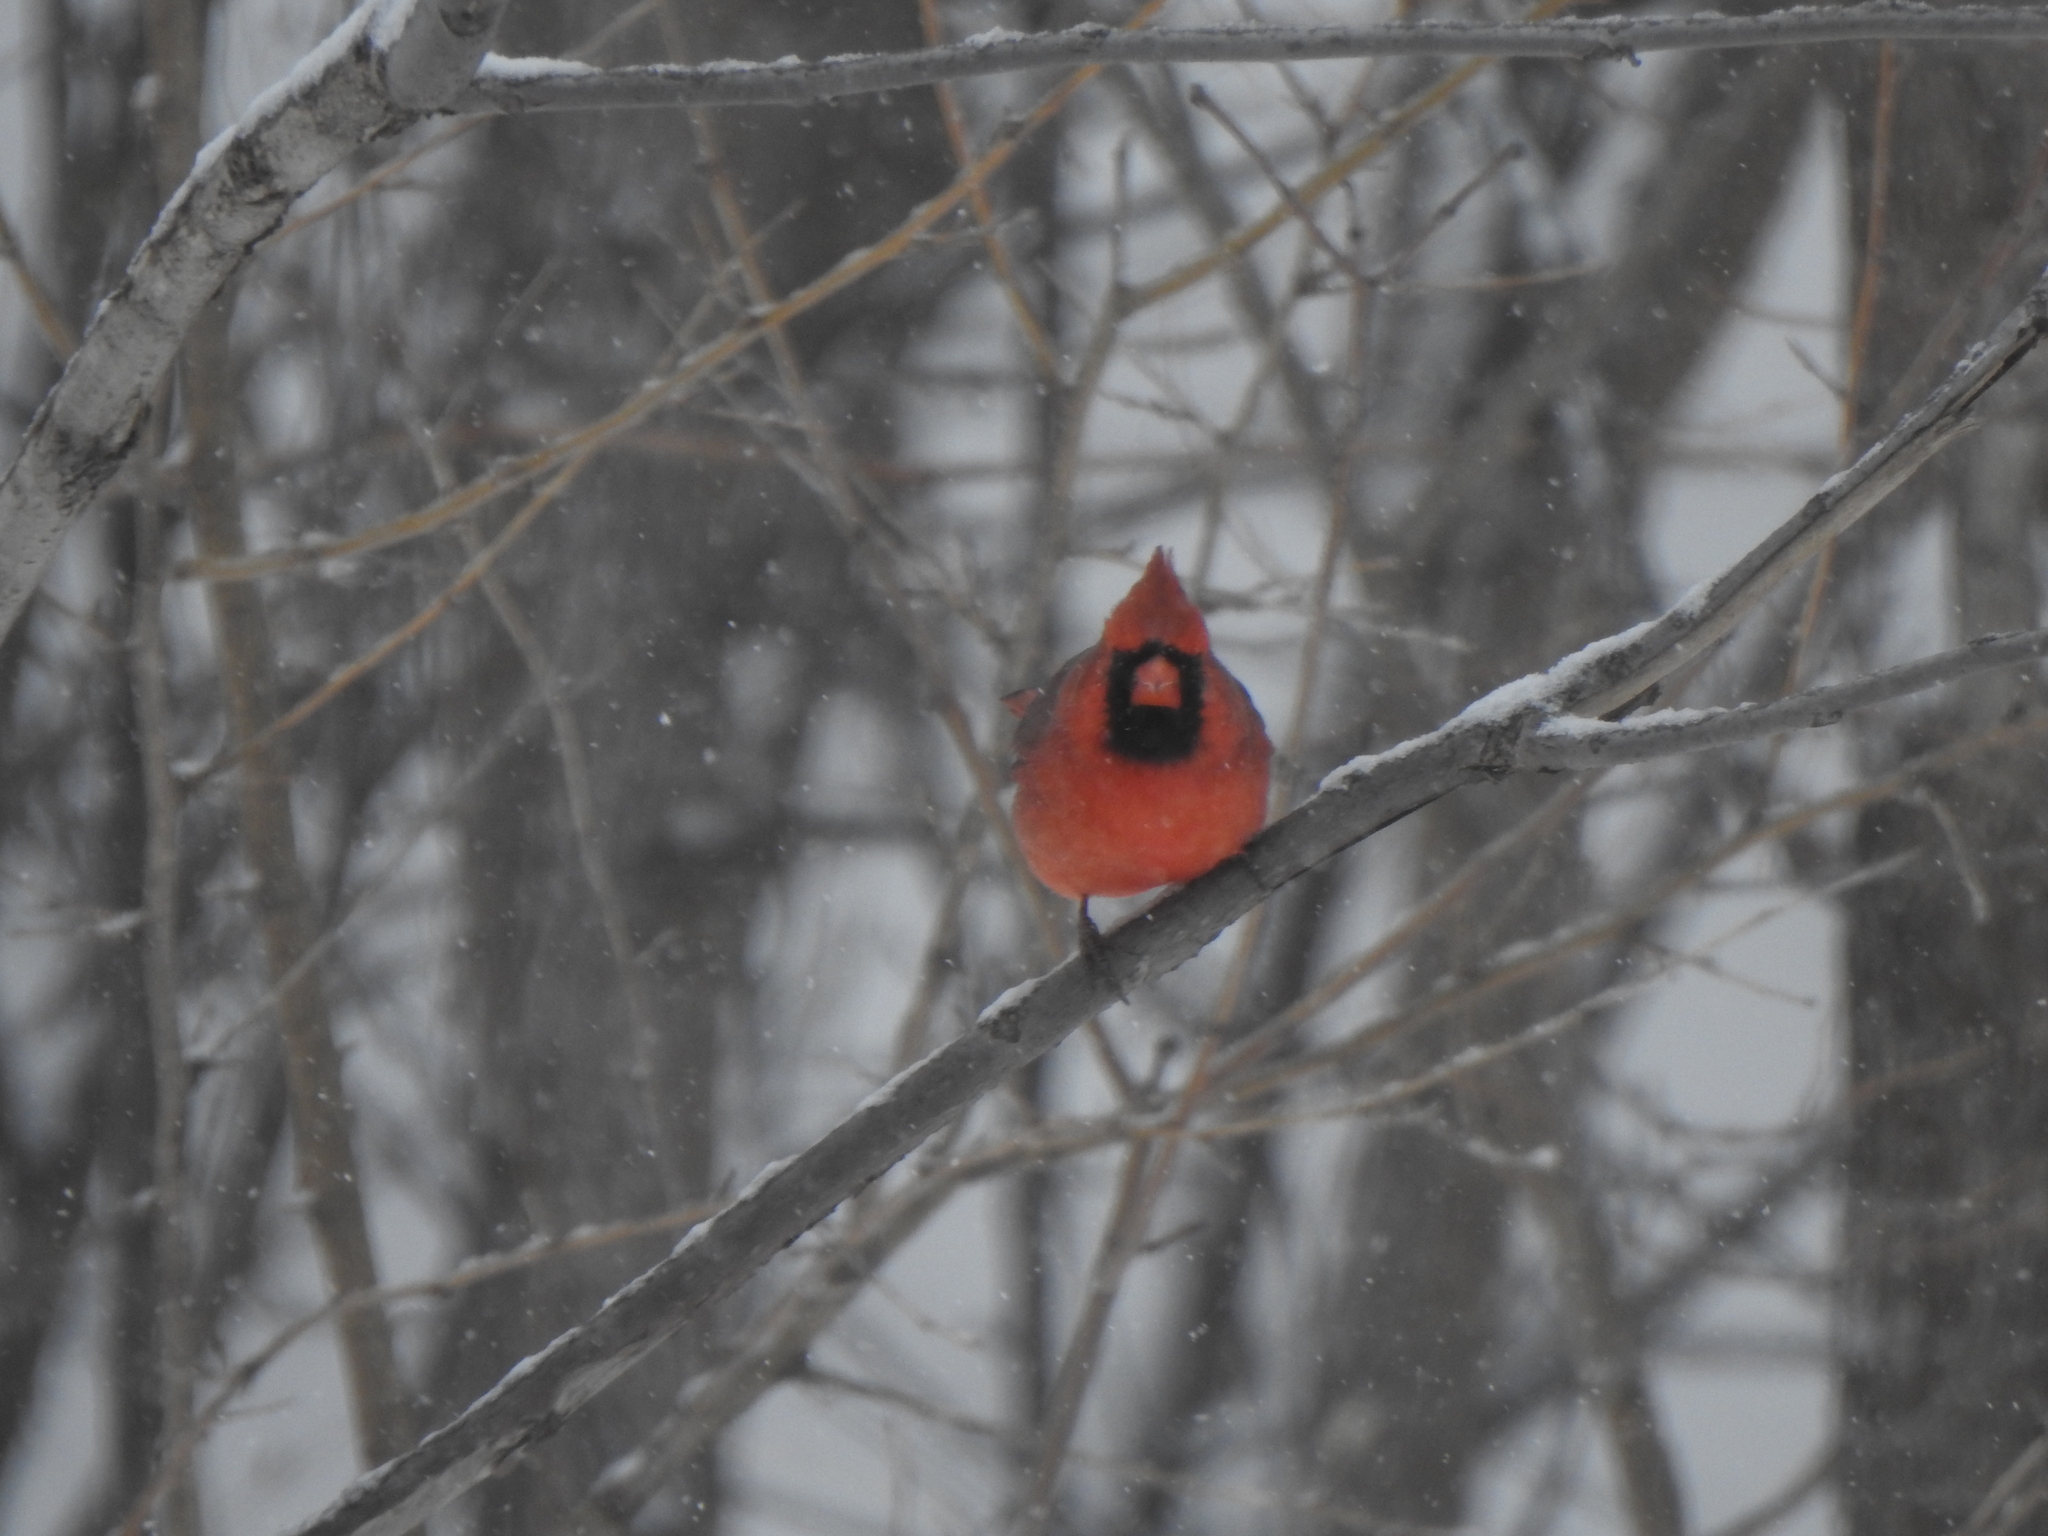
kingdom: Animalia
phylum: Chordata
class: Aves
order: Passeriformes
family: Cardinalidae
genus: Cardinalis
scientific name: Cardinalis cardinalis
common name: Northern cardinal
